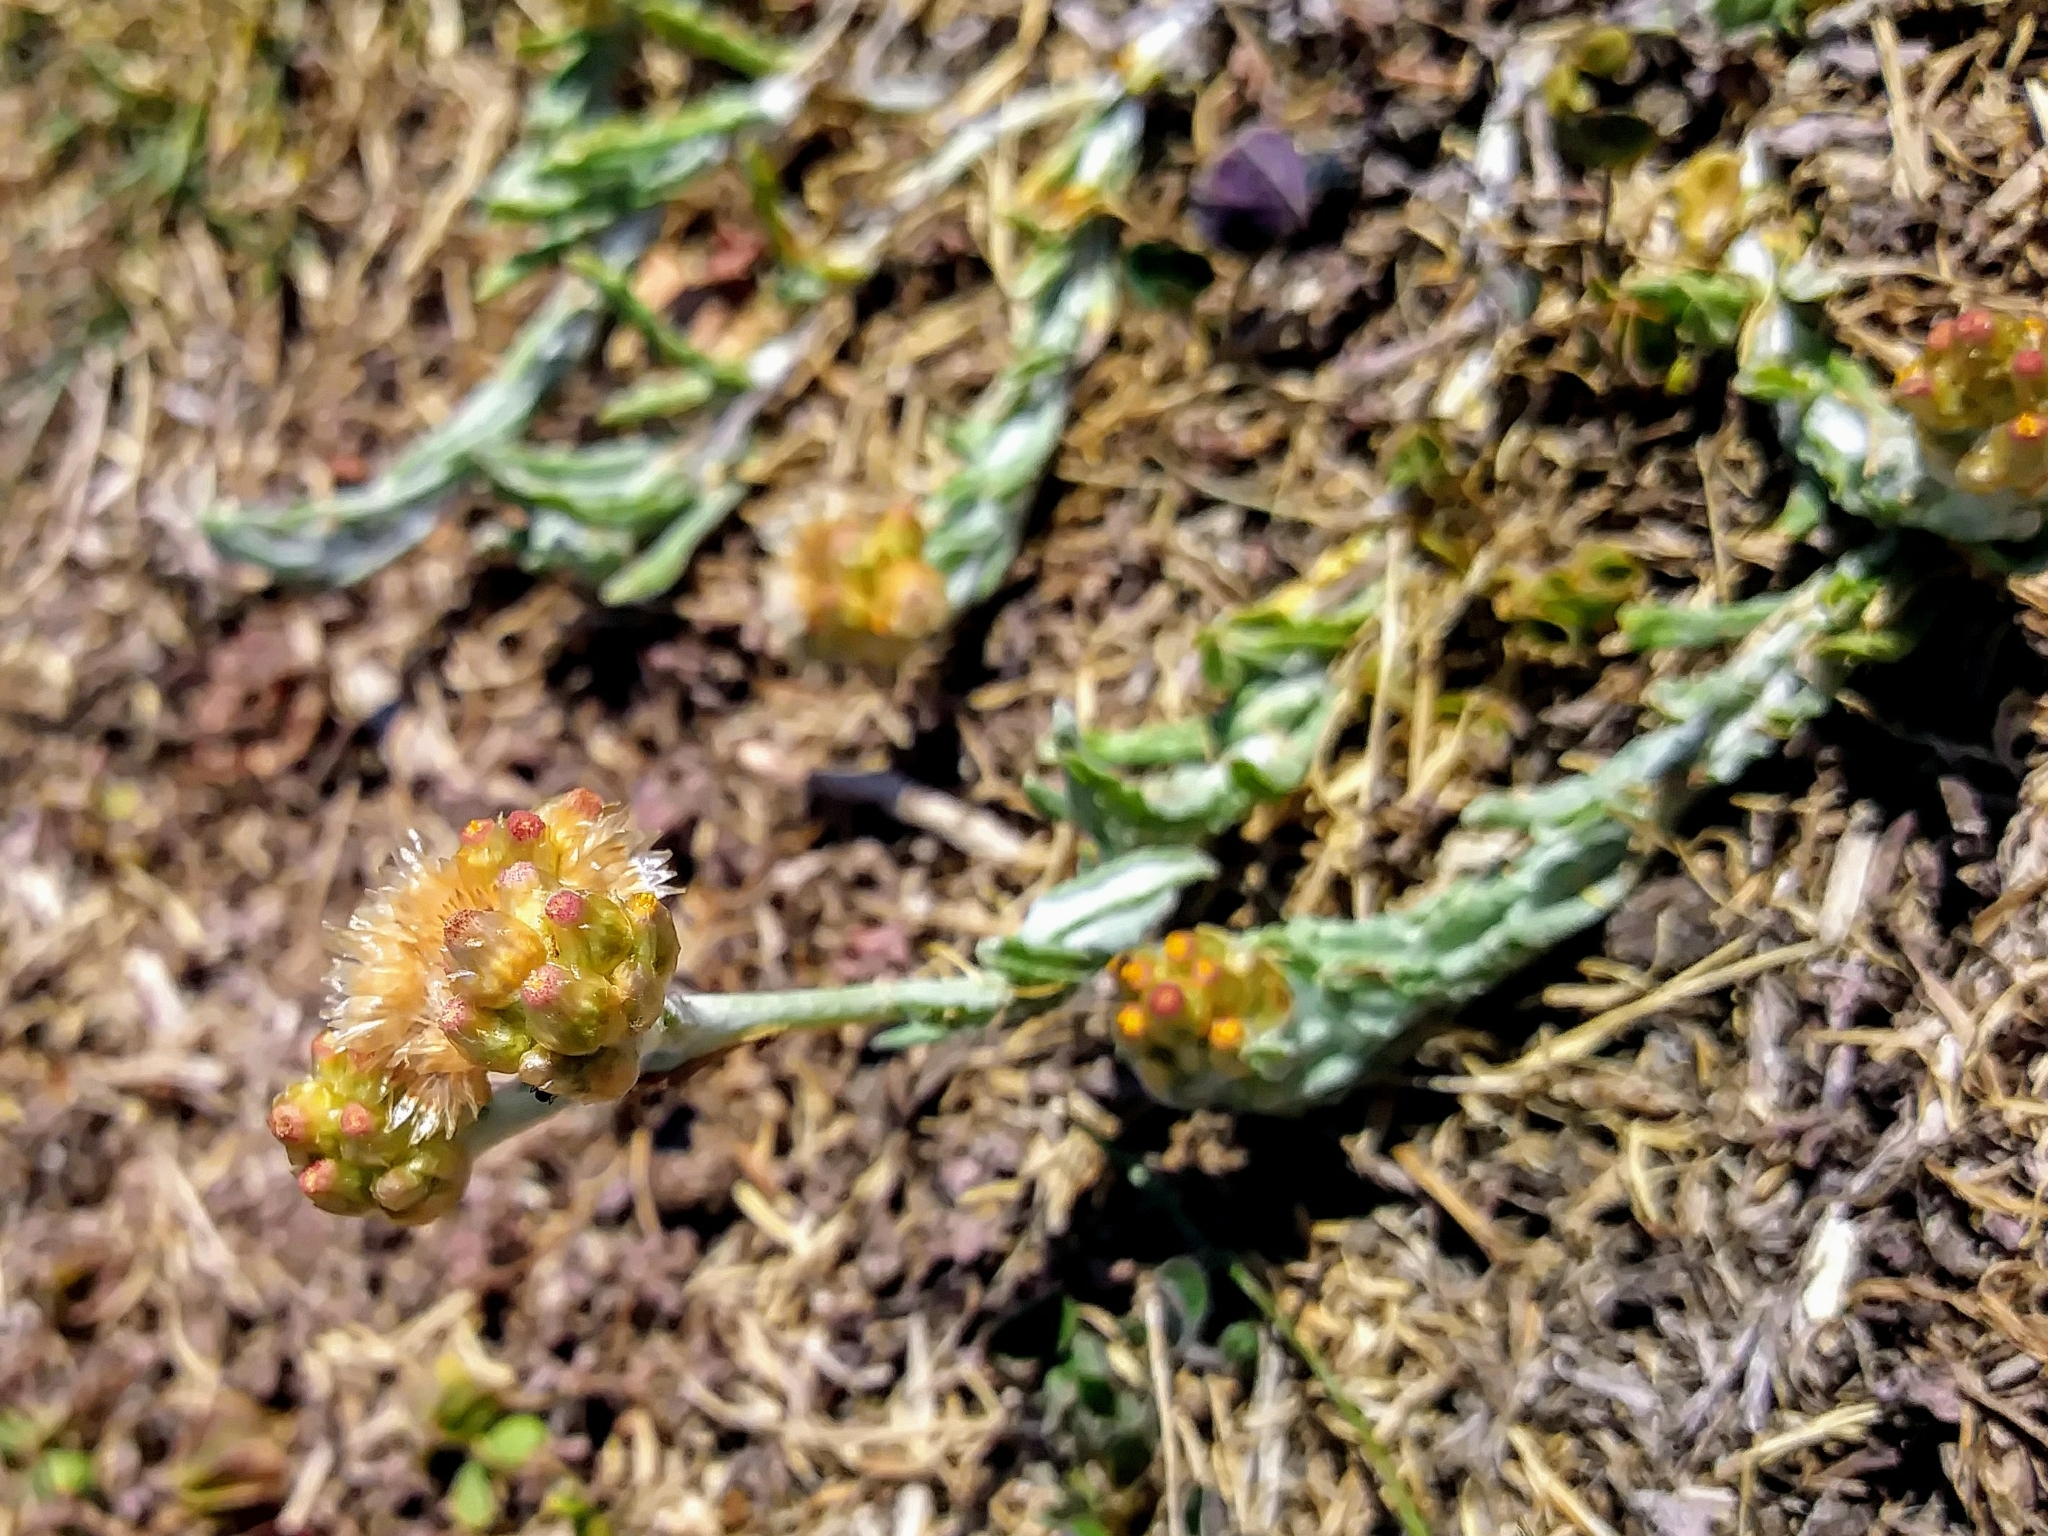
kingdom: Plantae
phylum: Tracheophyta
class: Magnoliopsida
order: Asterales
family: Asteraceae
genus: Helichrysum
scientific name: Helichrysum luteoalbum
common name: Daisy
